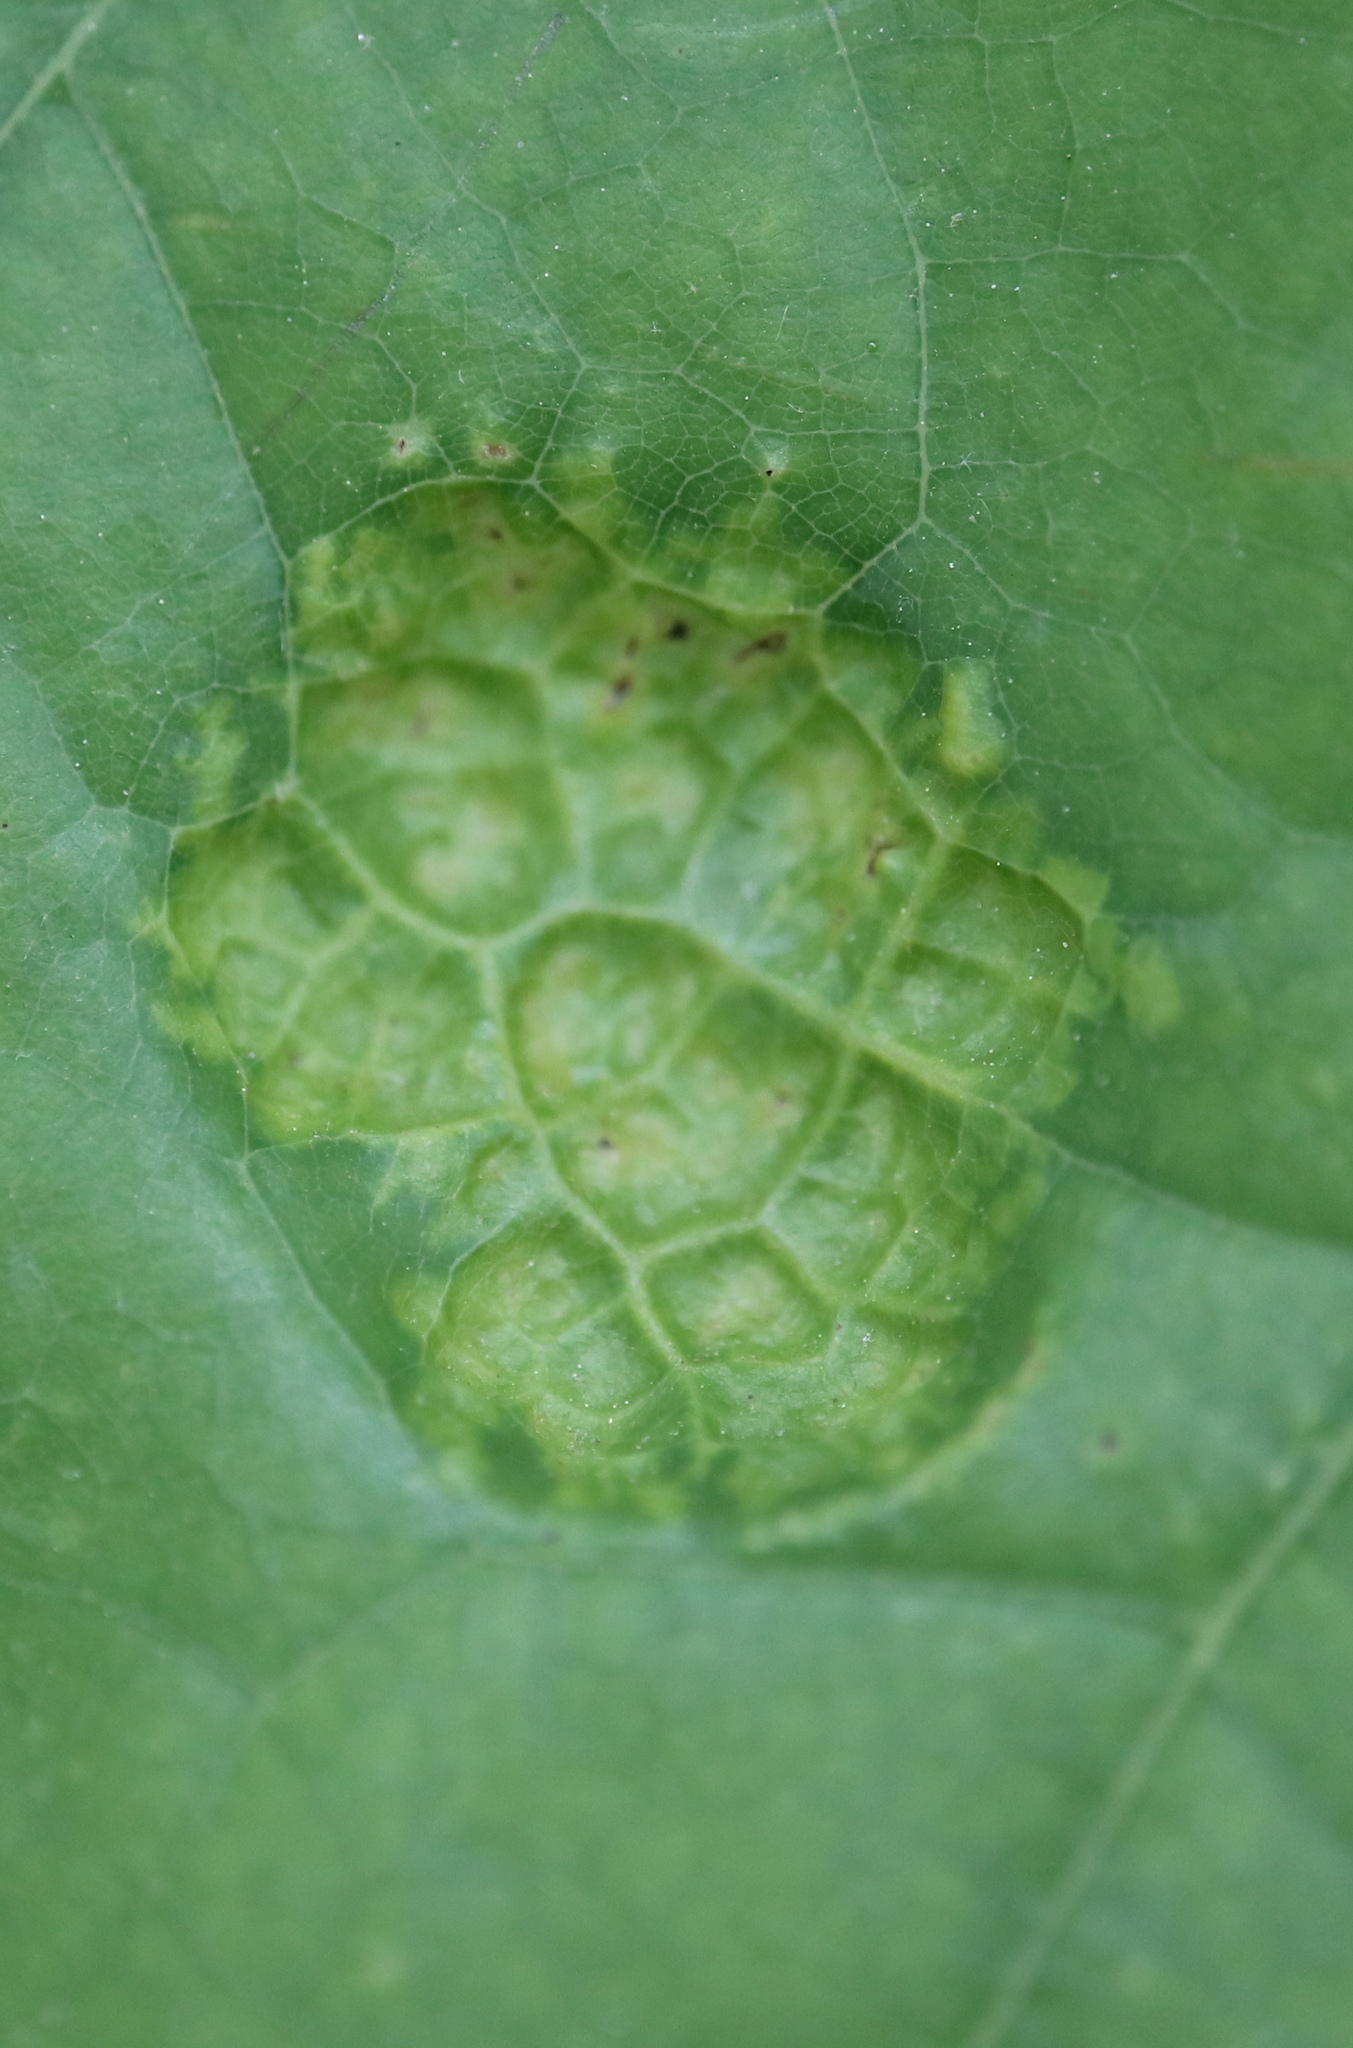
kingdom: Fungi
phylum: Ascomycota
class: Taphrinomycetes
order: Taphrinales
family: Taphrinaceae
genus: Taphrina
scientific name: Taphrina caerulescens
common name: Oak leaf blister
